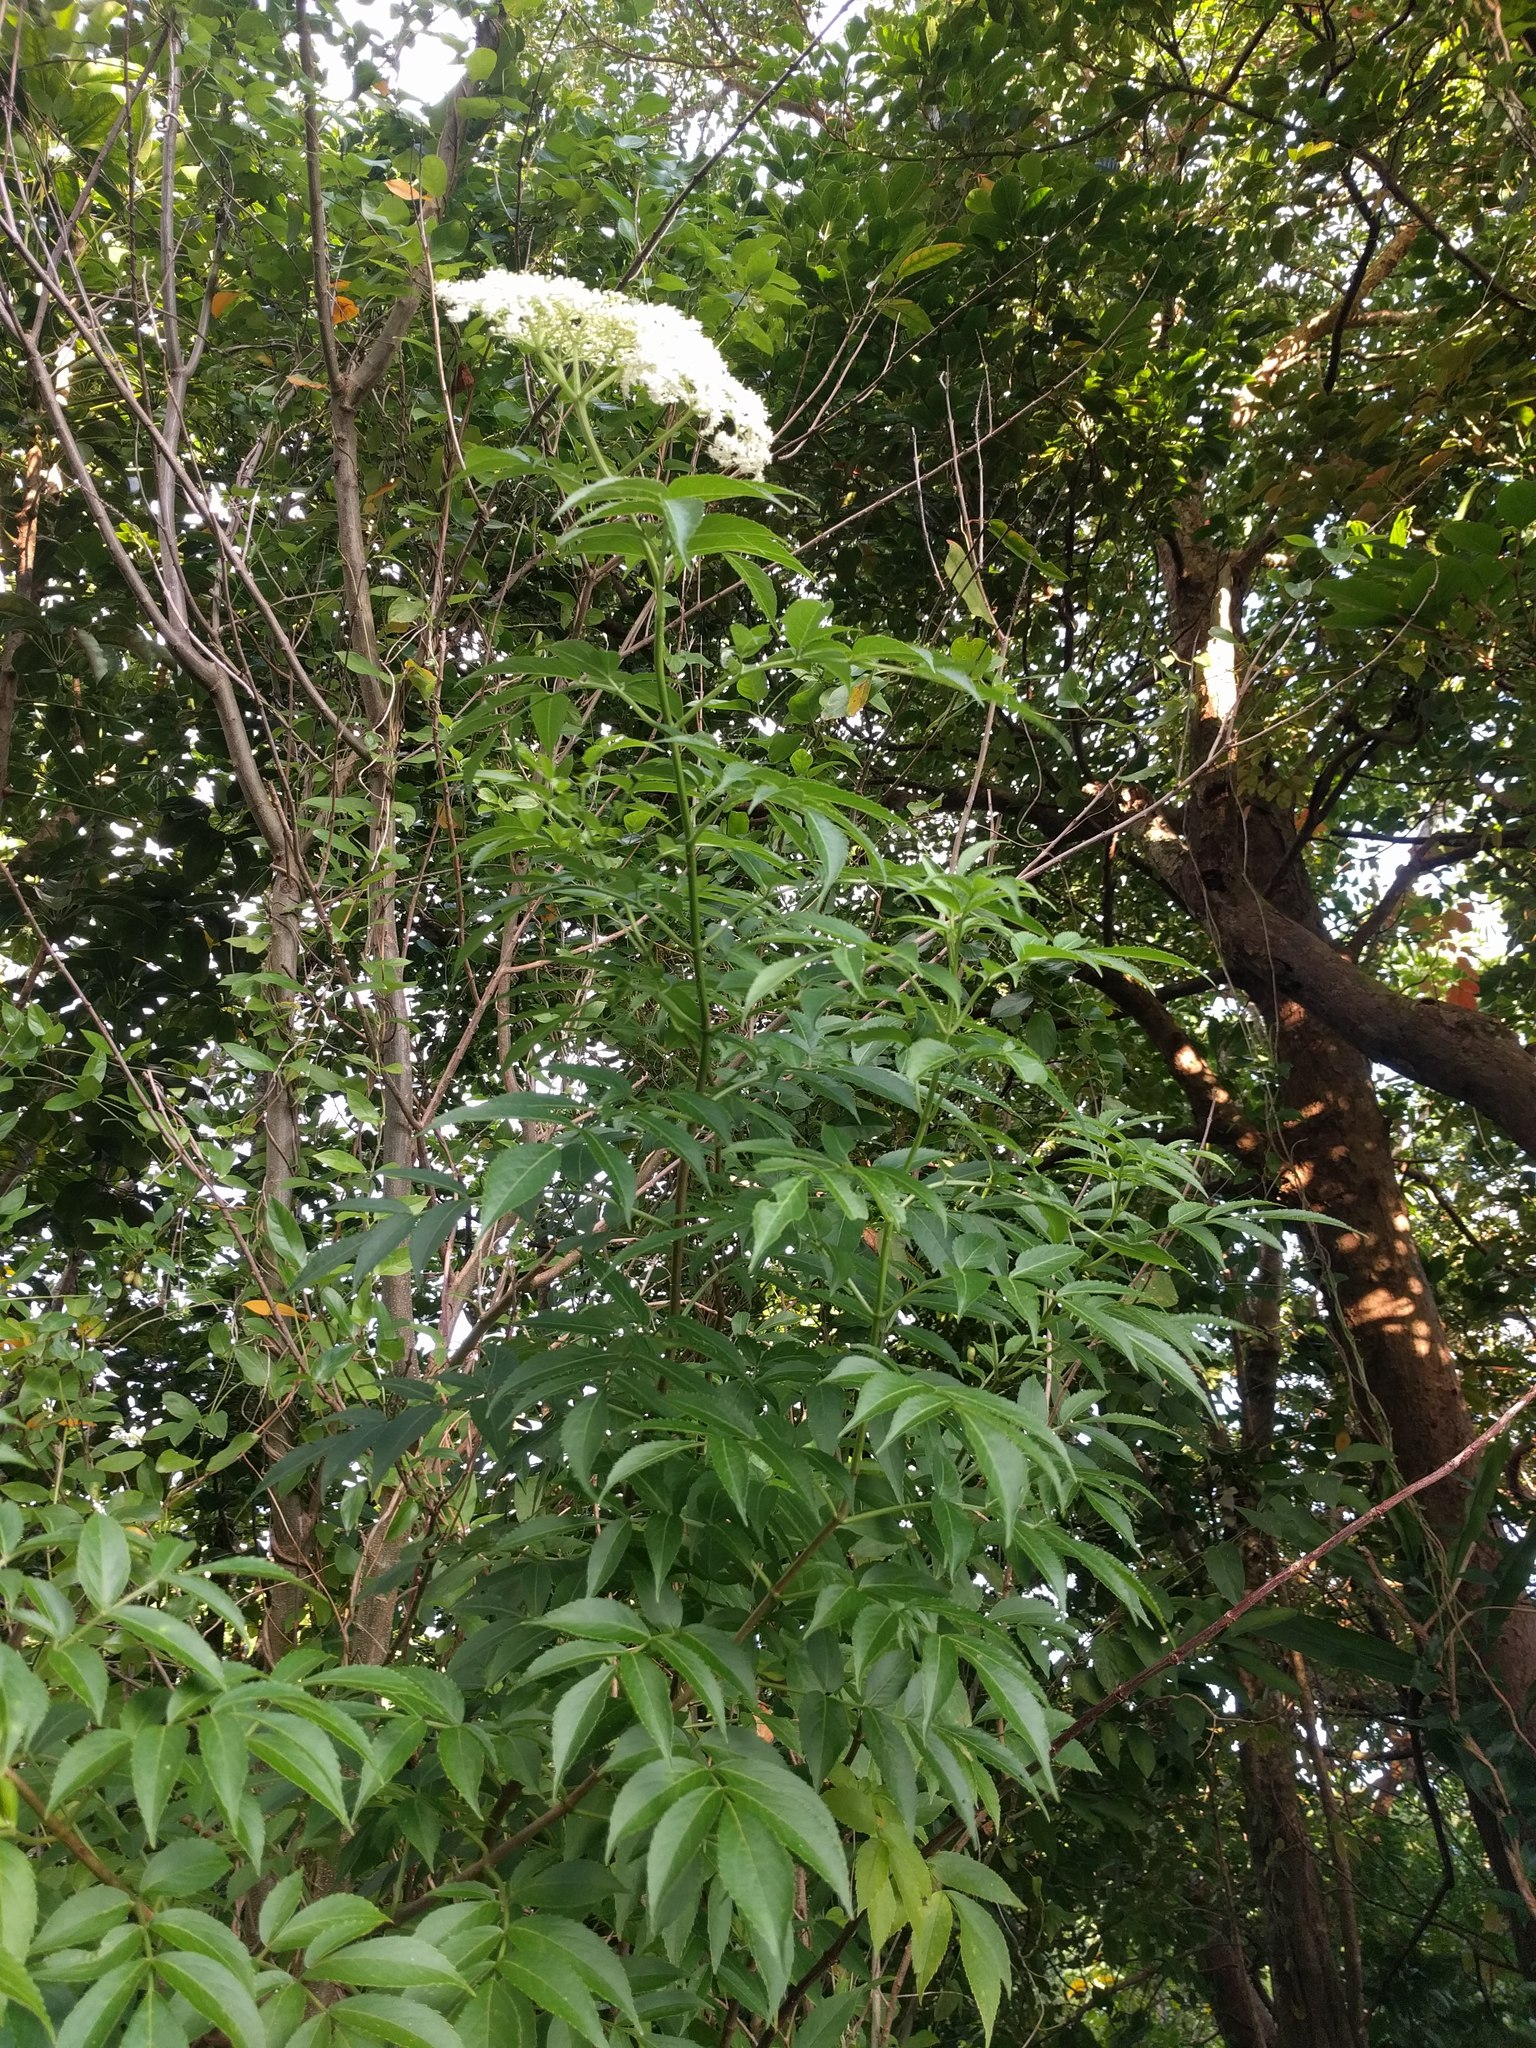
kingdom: Plantae
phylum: Tracheophyta
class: Magnoliopsida
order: Dipsacales
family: Viburnaceae
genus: Sambucus
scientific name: Sambucus cerulea
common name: Blue elder
